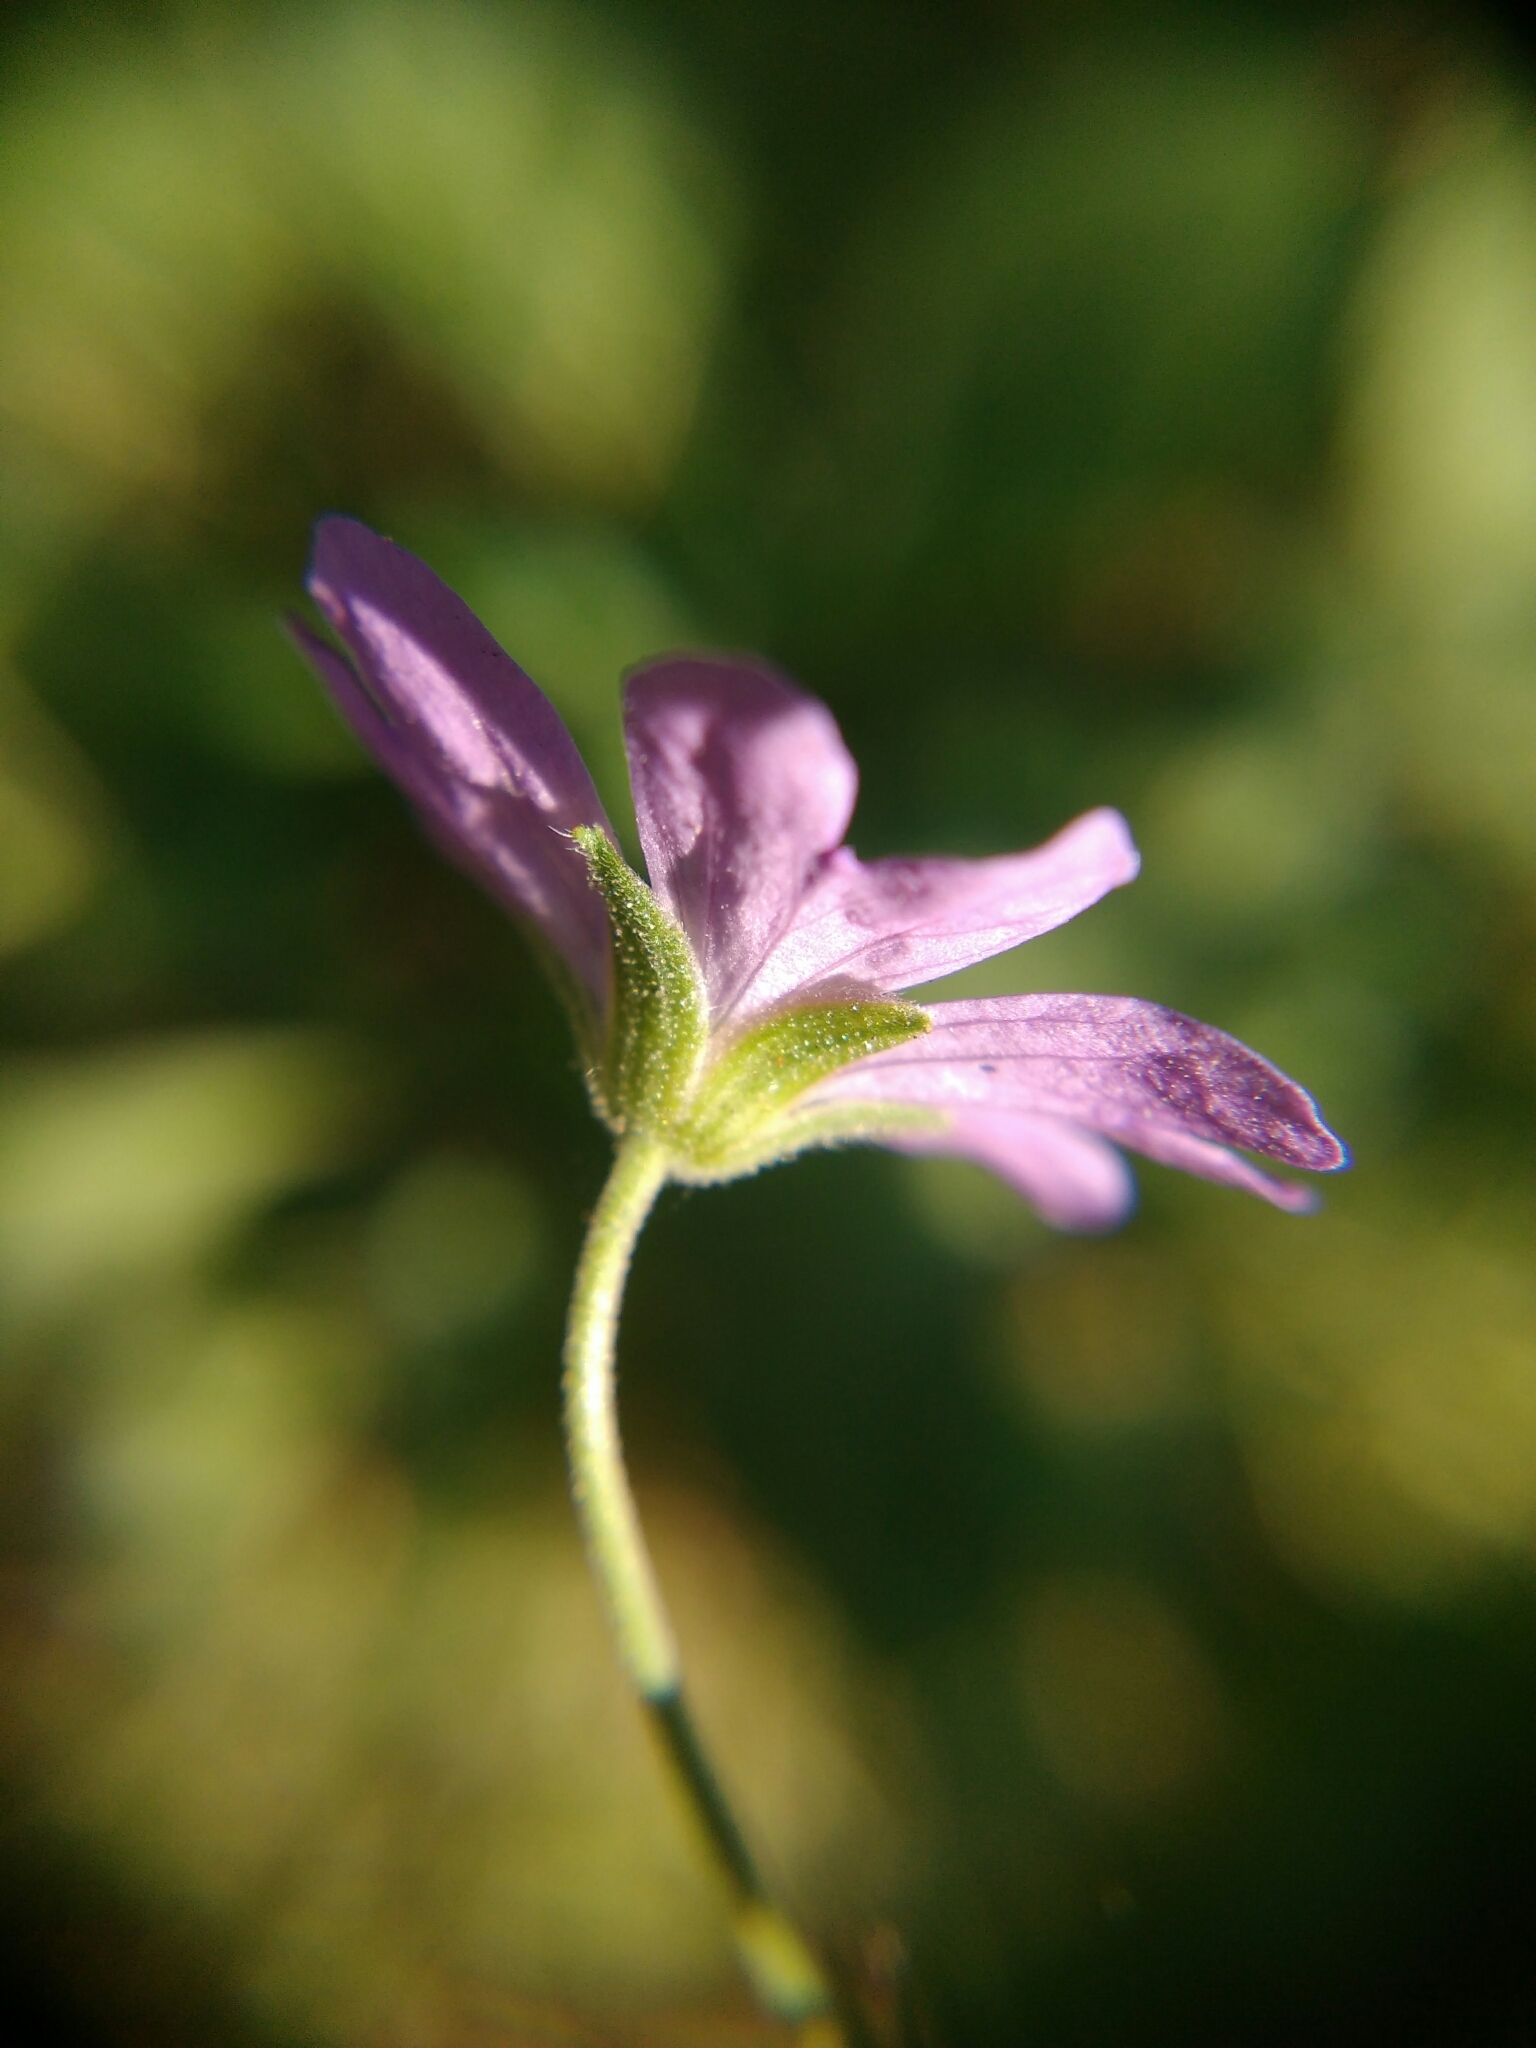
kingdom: Plantae
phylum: Tracheophyta
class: Magnoliopsida
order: Geraniales
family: Geraniaceae
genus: Geranium
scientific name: Geranium pyrenaicum
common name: Hedgerow crane's-bill
